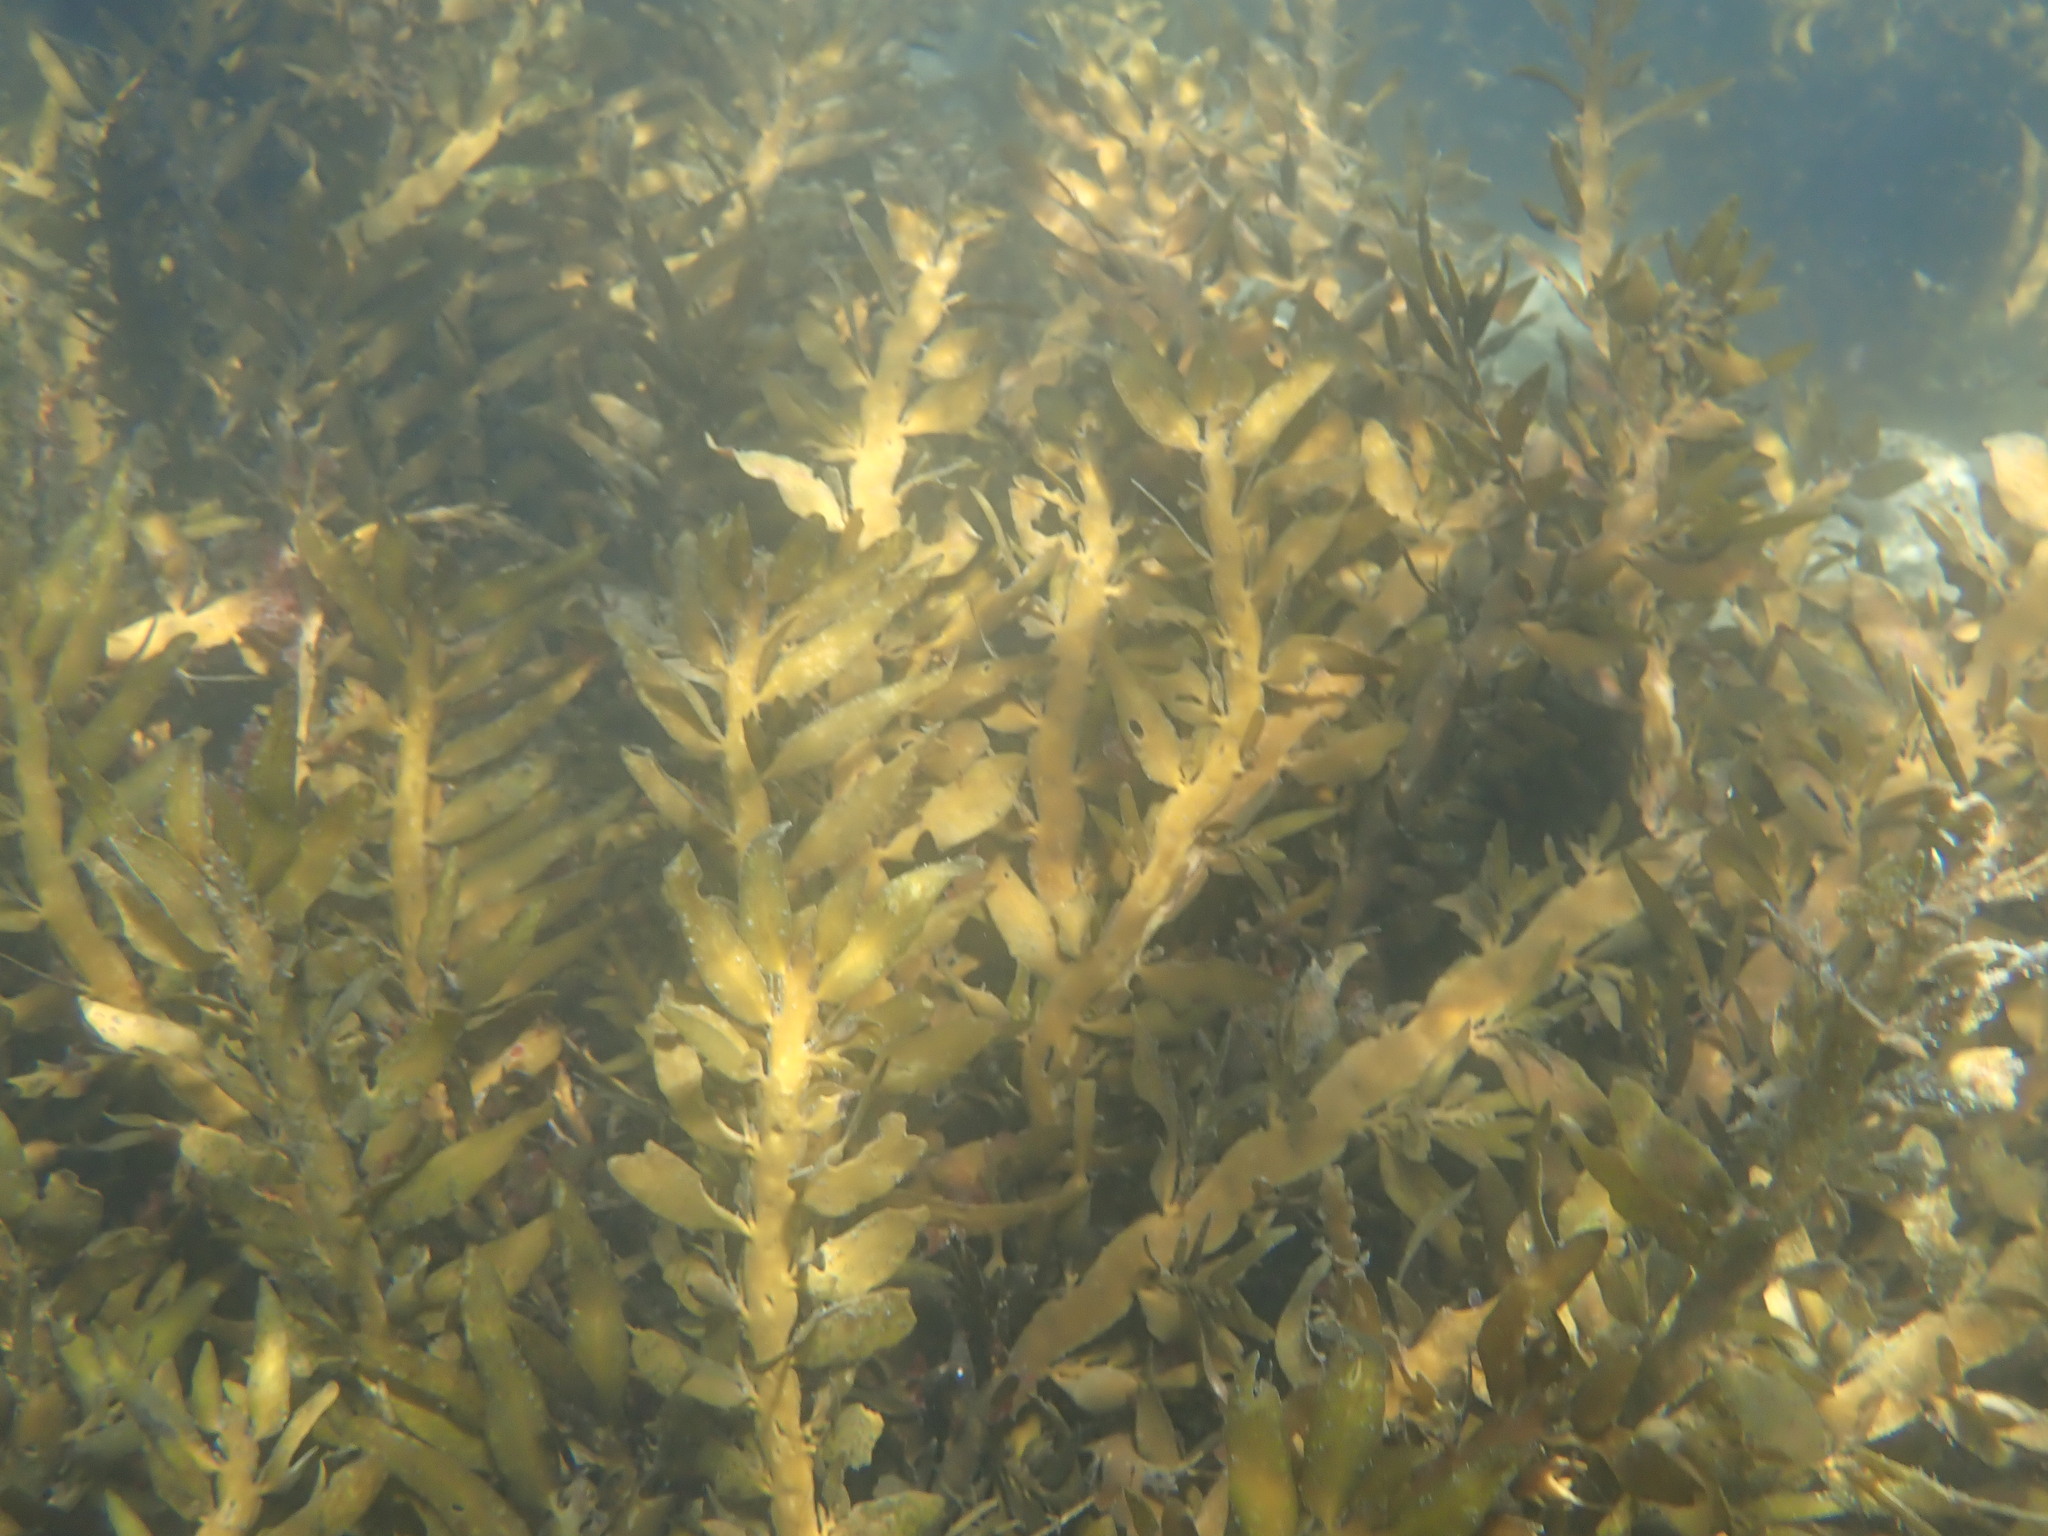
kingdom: Chromista
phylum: Ochrophyta
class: Phaeophyceae
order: Fucales
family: Sargassaceae
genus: Carpophyllum
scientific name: Carpophyllum maschalocarpum
